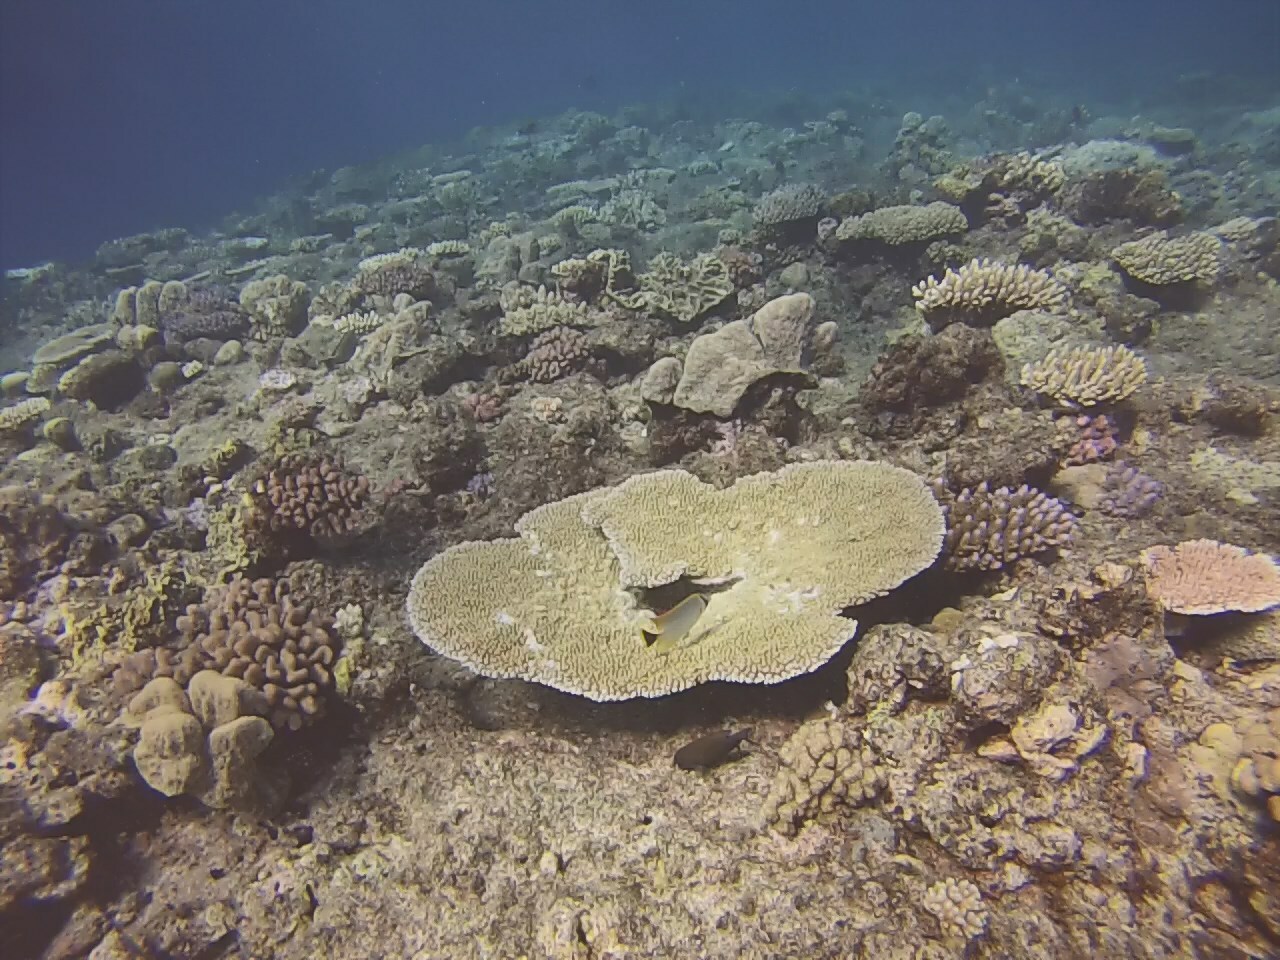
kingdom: Animalia
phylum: Chordata
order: Perciformes
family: Chaetodontidae
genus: Chaetodon
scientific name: Chaetodon trifascialis
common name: Chevroned butterflyfish
